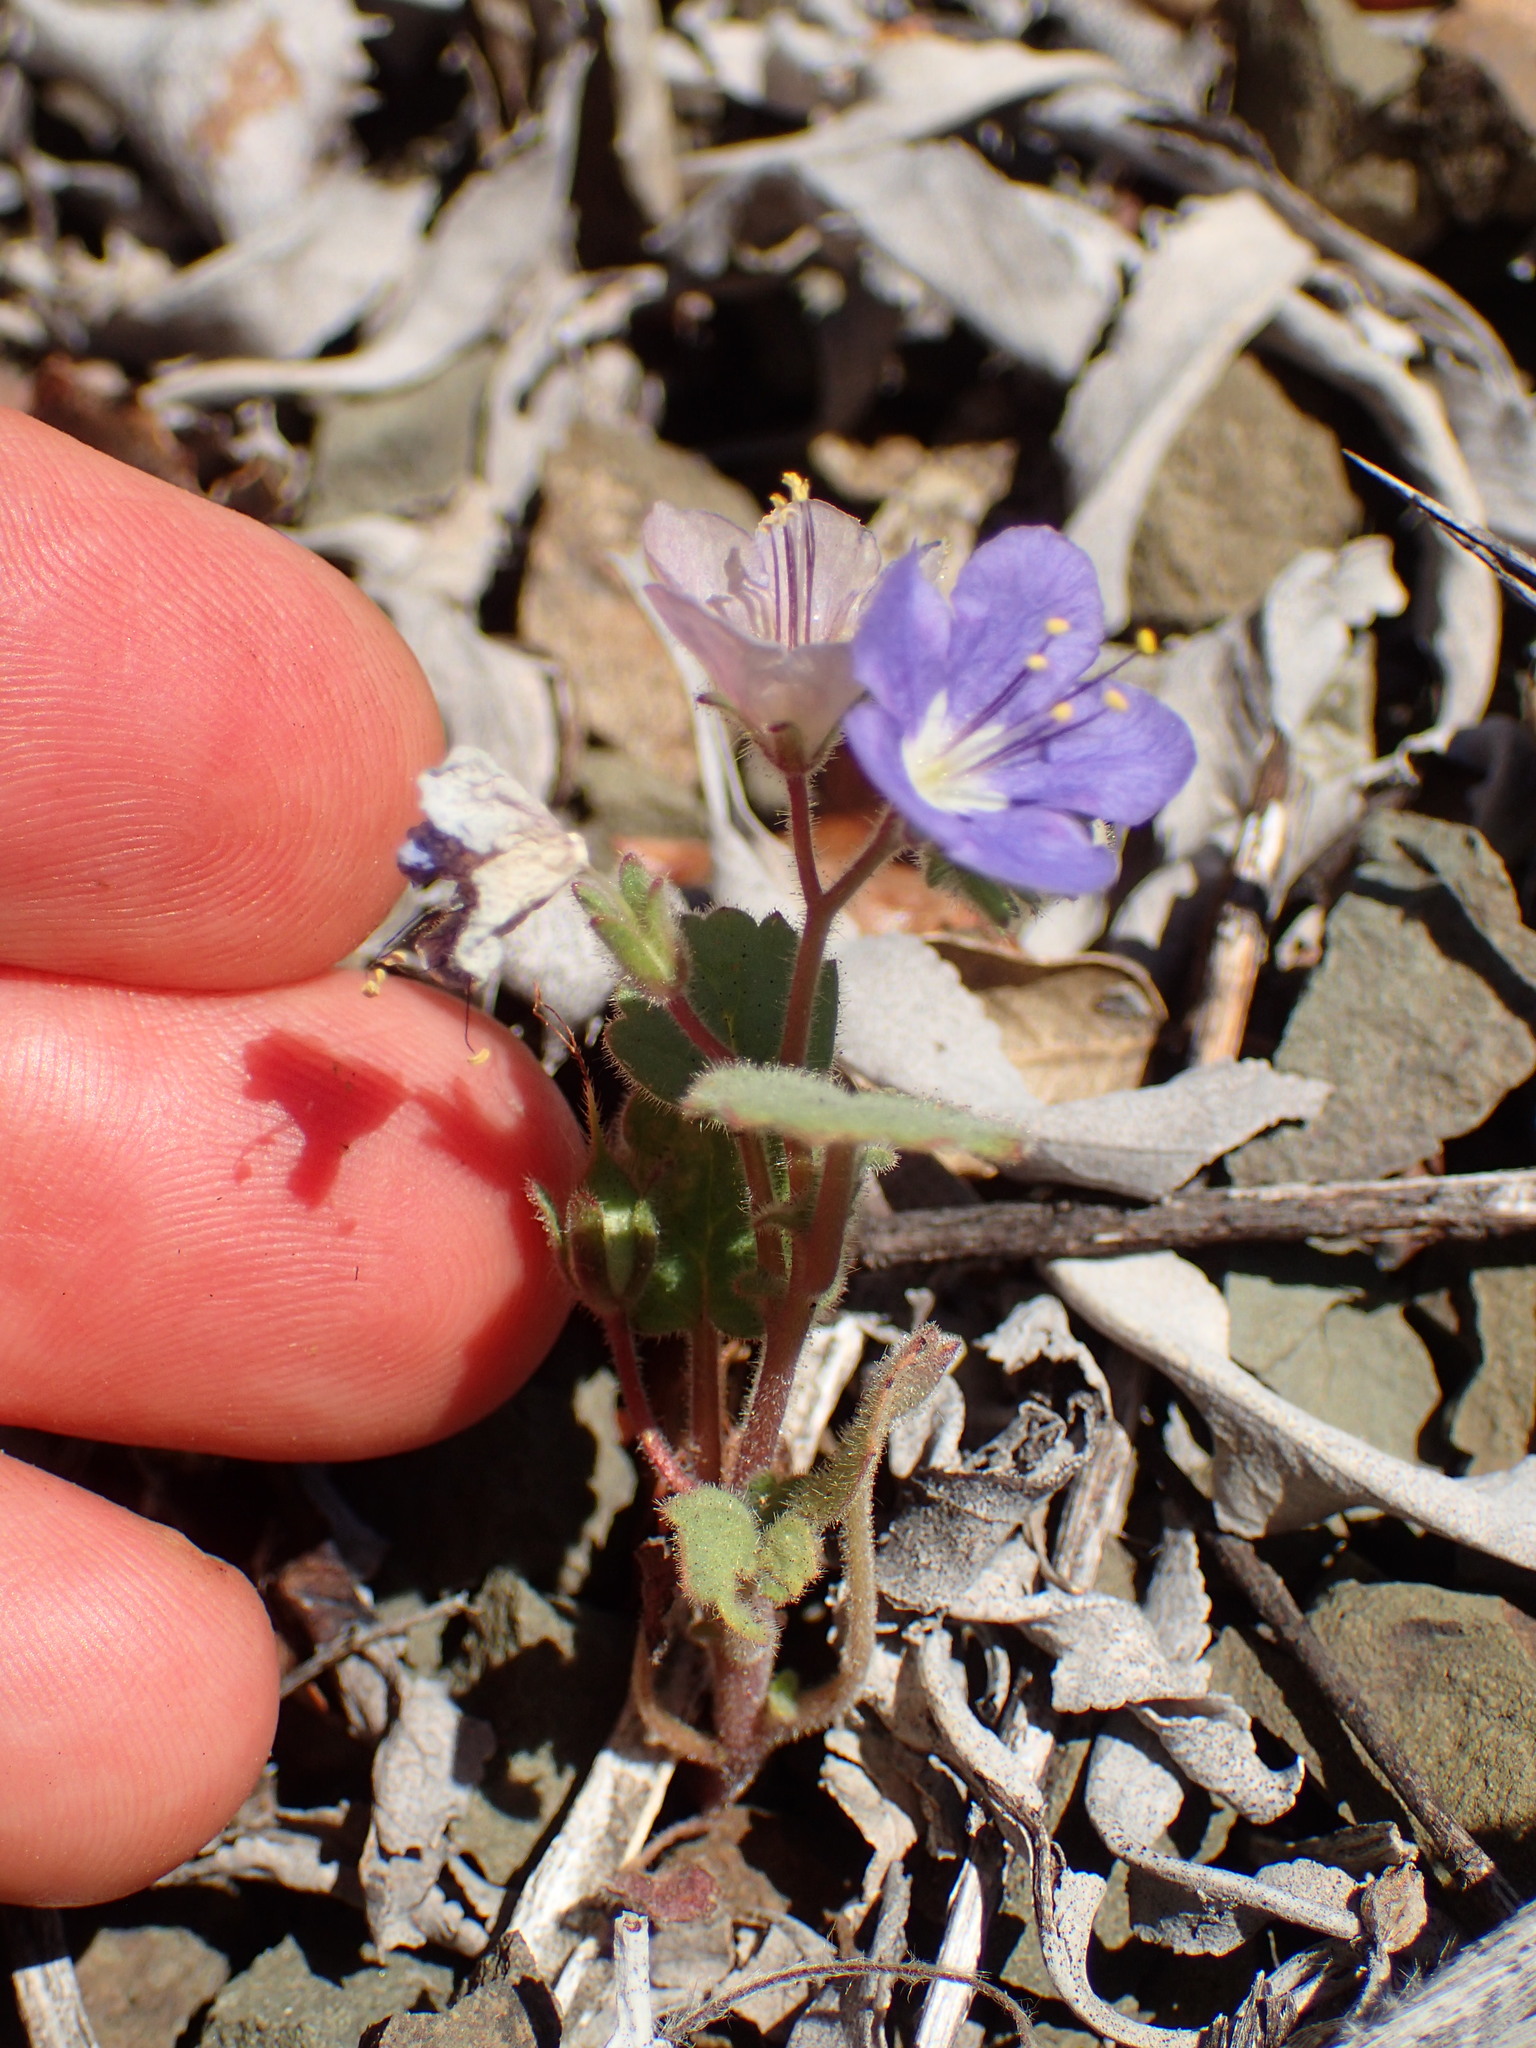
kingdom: Plantae
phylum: Tracheophyta
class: Magnoliopsida
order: Boraginales
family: Hydrophyllaceae
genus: Phacelia
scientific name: Phacelia longipes
